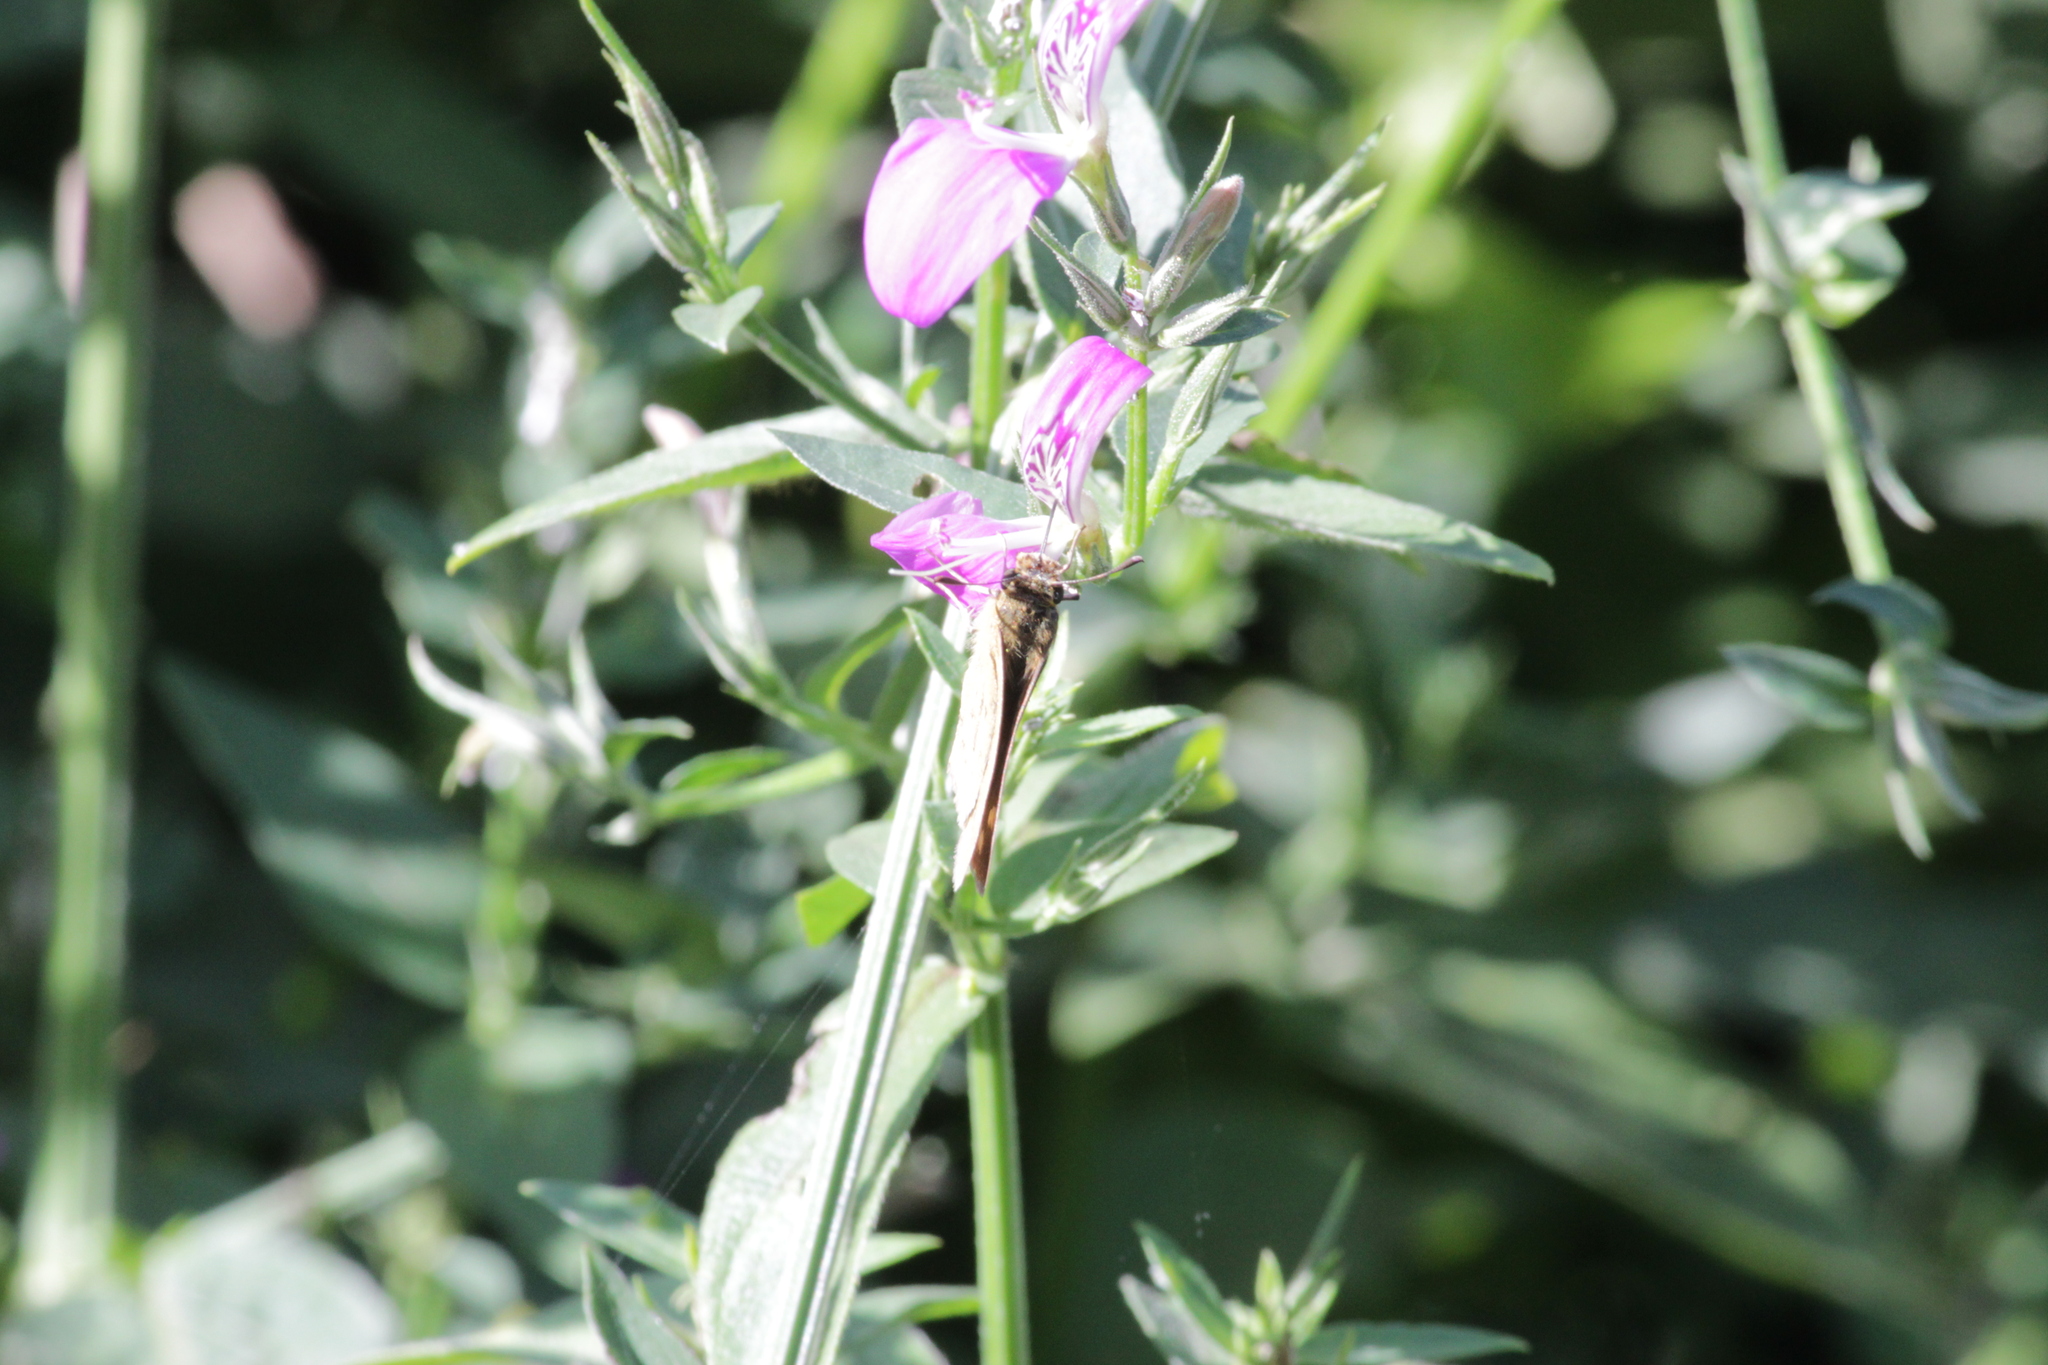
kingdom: Animalia
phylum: Arthropoda
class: Insecta
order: Hymenoptera
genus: Afrogenes
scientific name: Afrogenes
